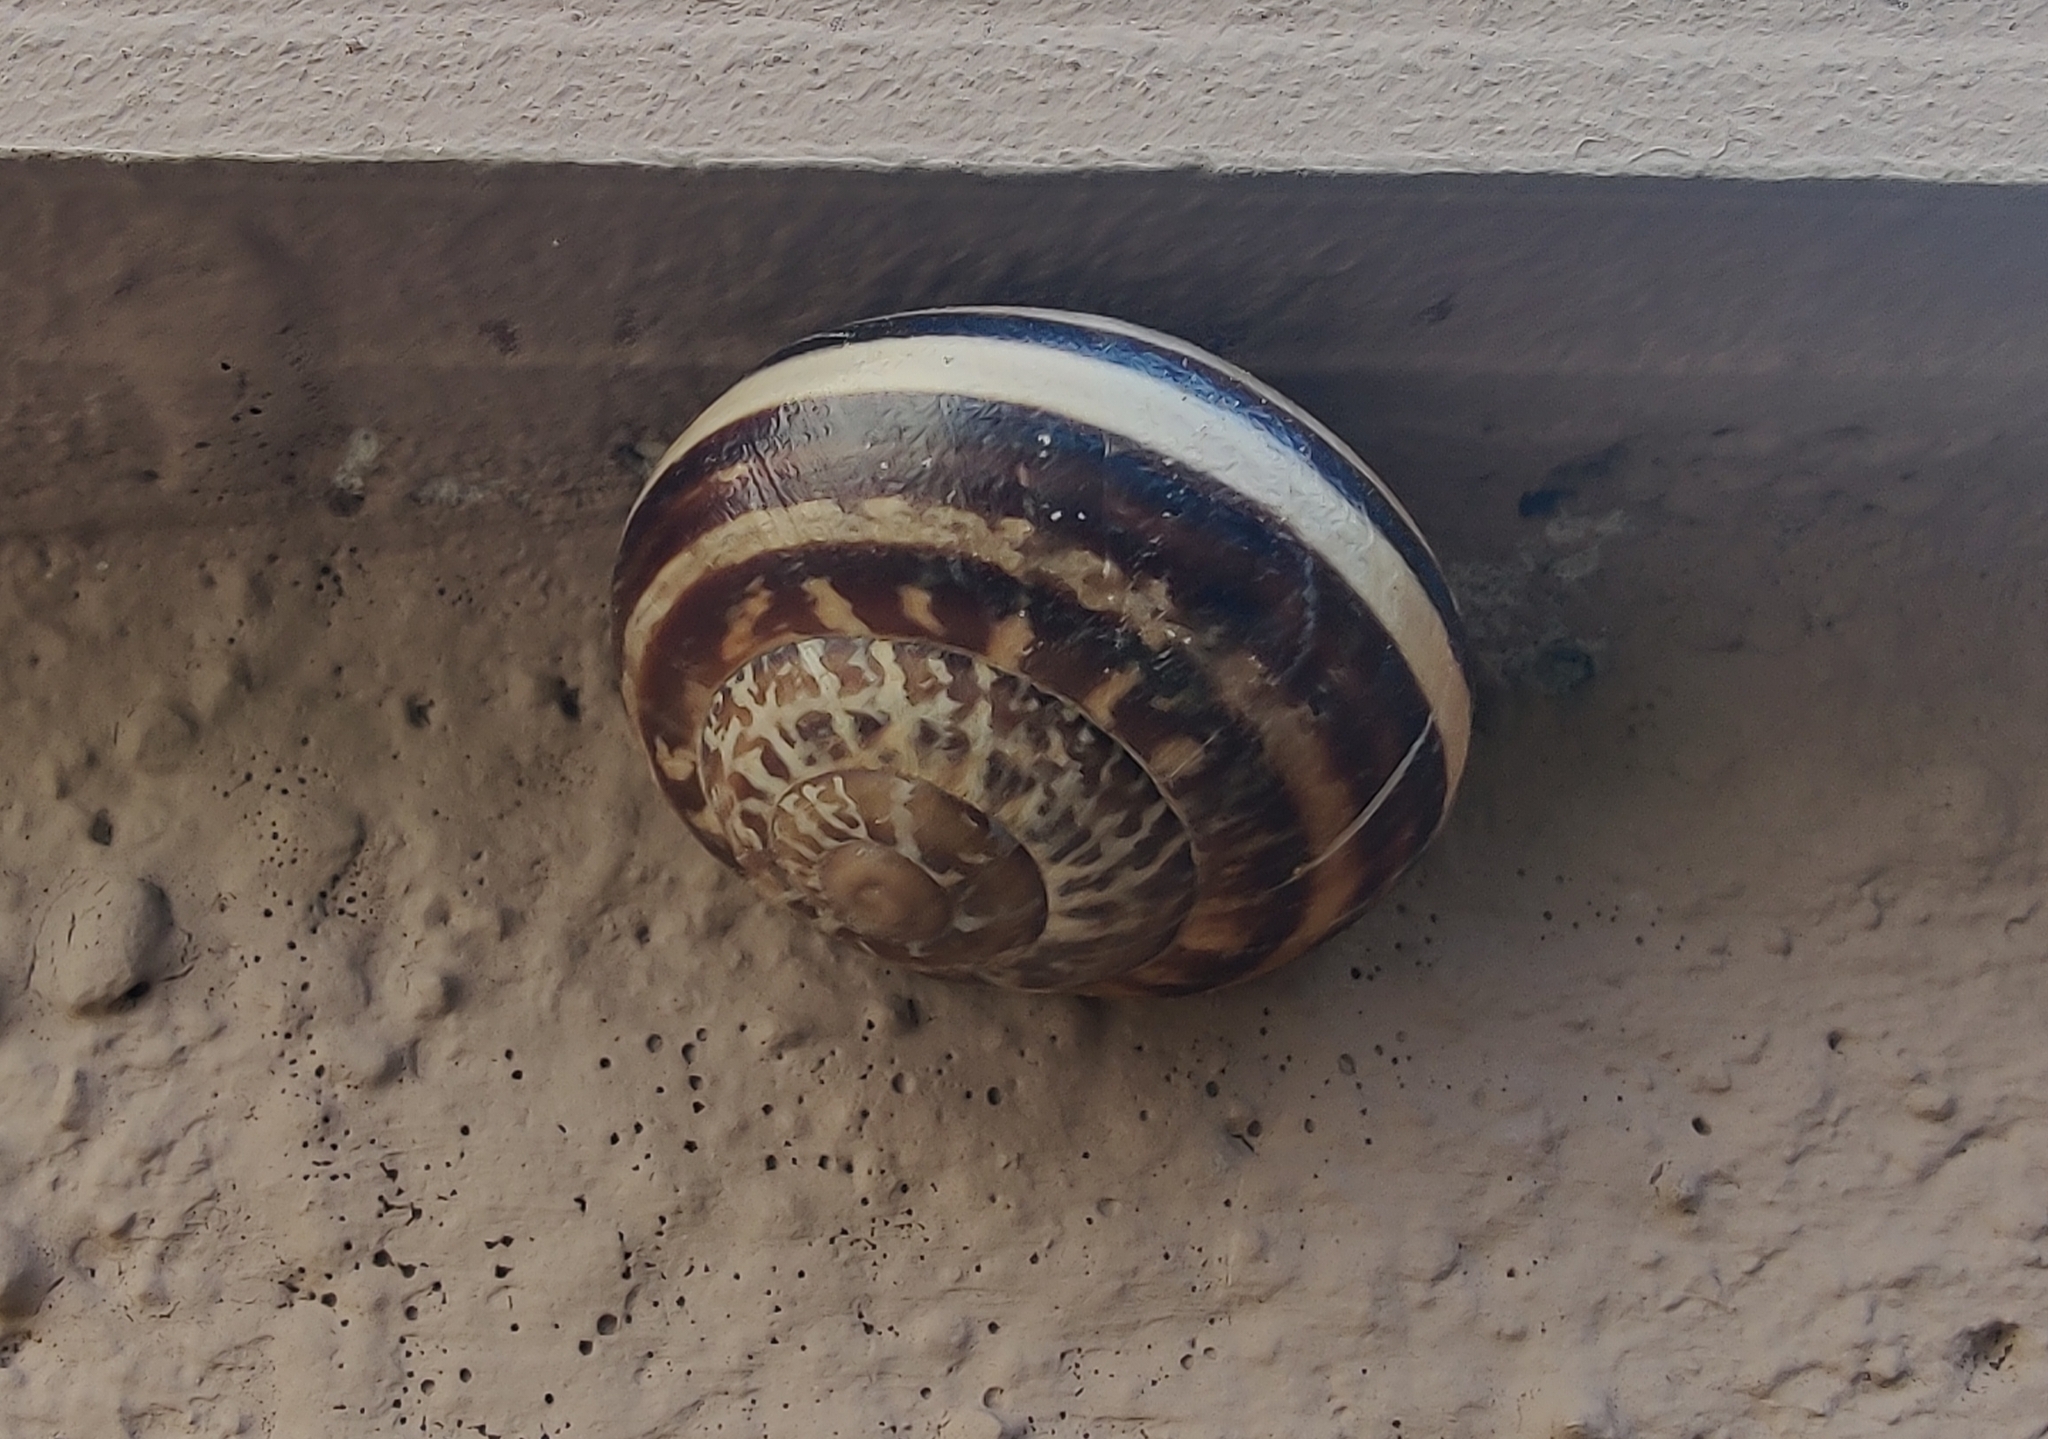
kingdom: Animalia
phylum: Mollusca
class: Gastropoda
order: Stylommatophora
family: Helicidae
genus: Eobania
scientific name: Eobania vermiculata
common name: Chocolateband snail
